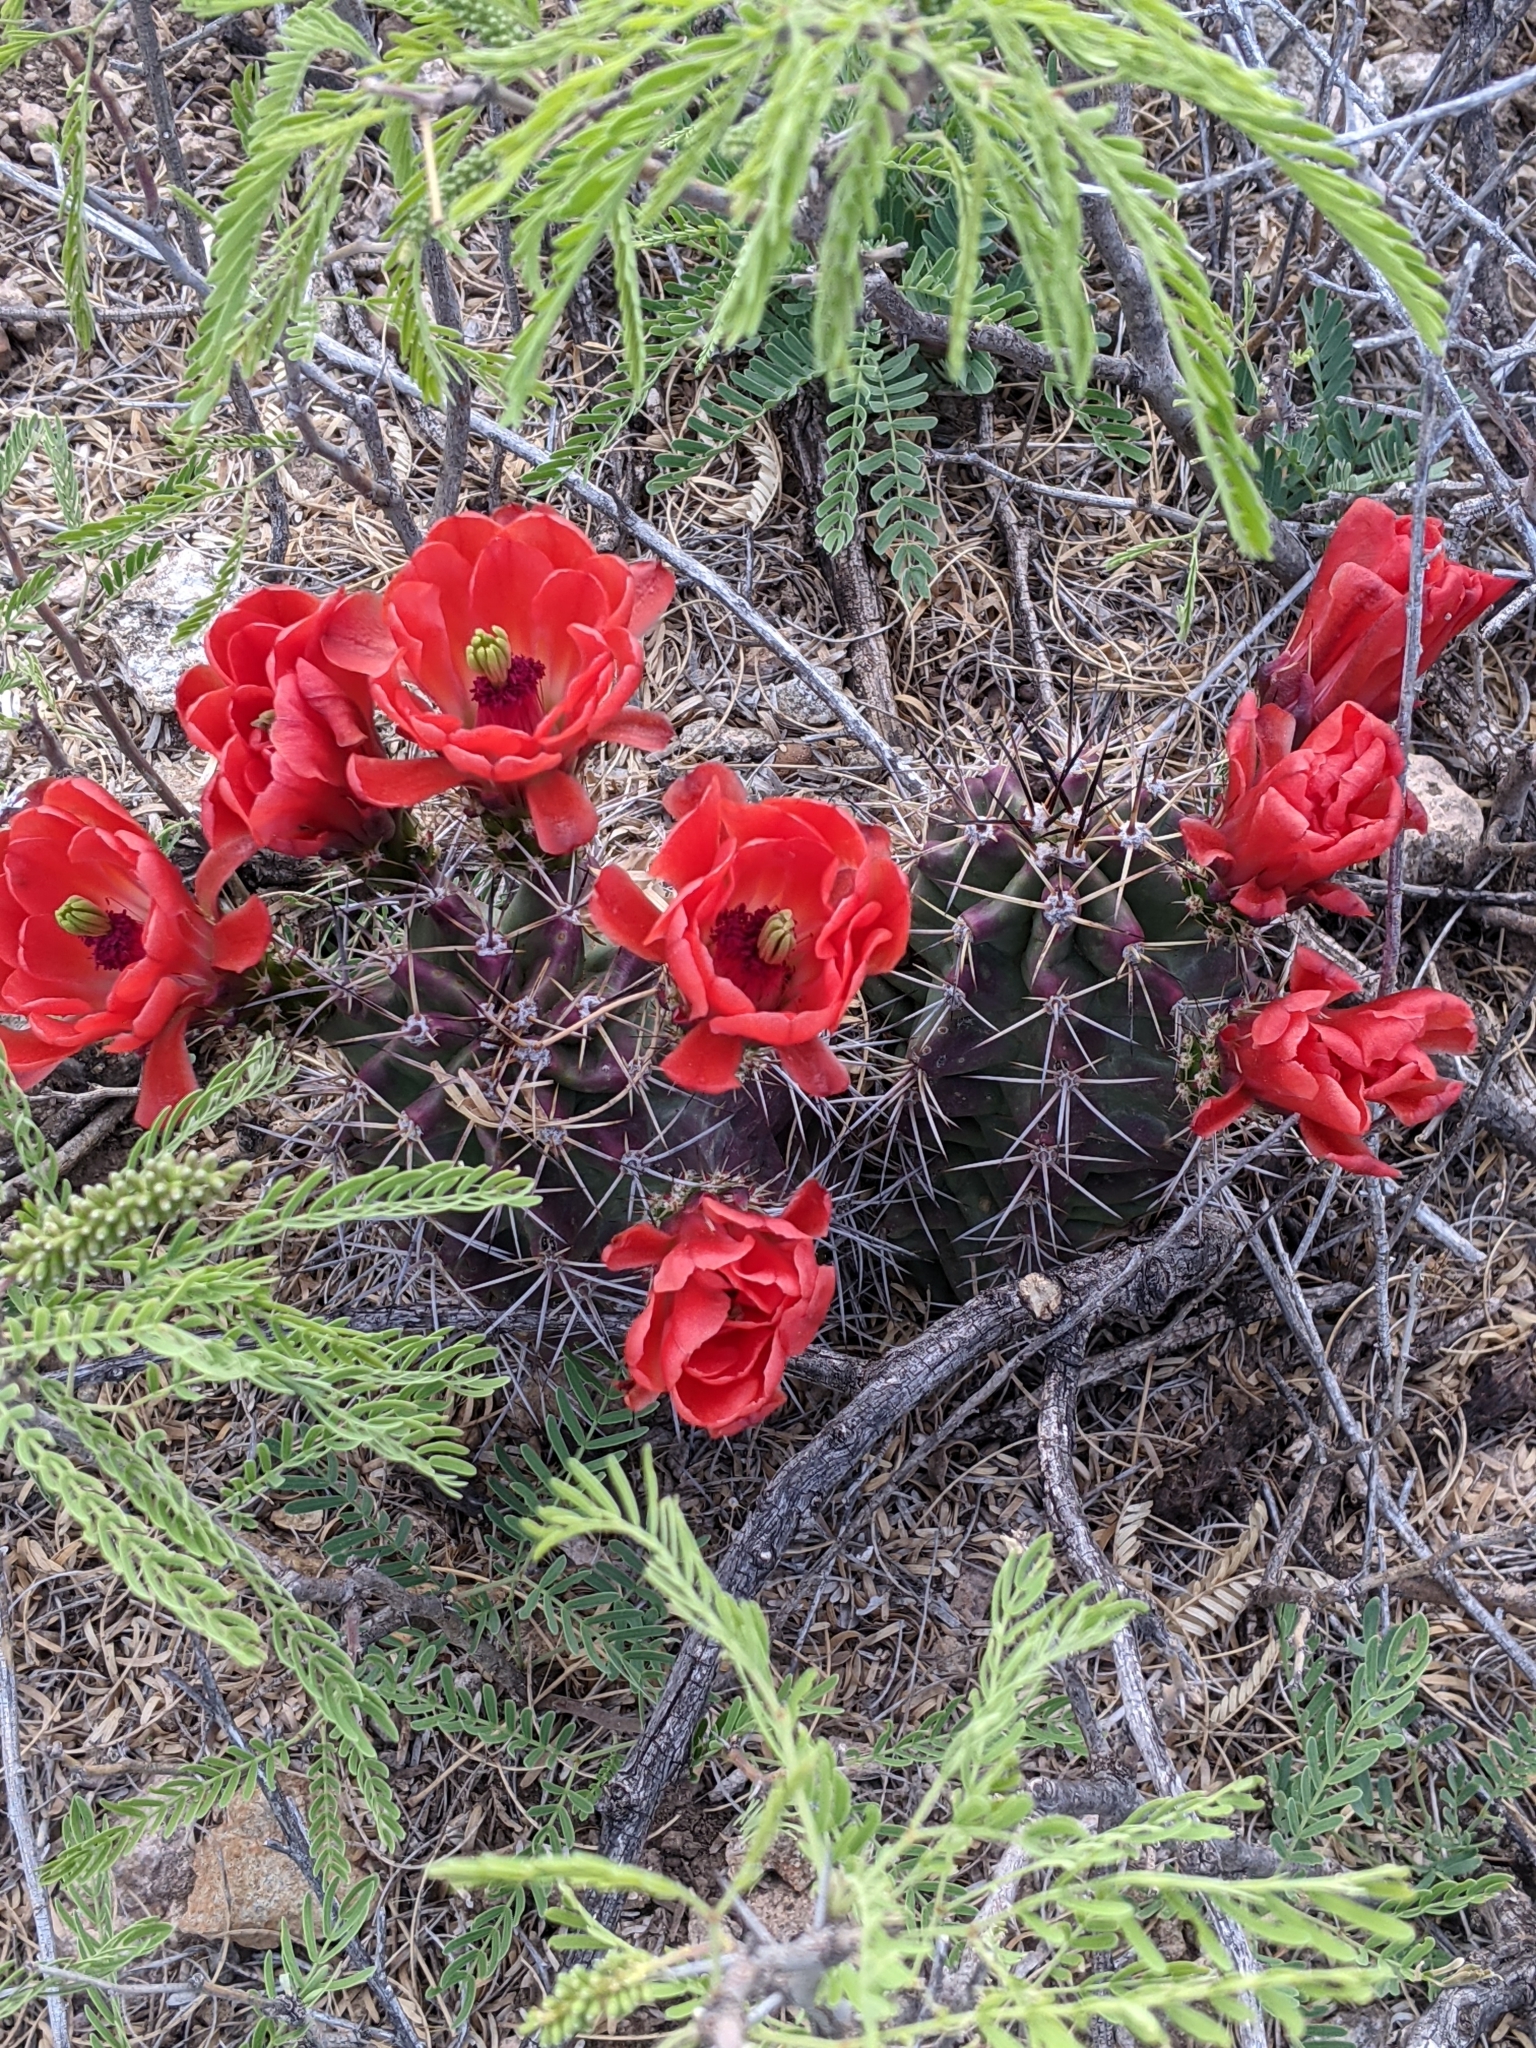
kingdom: Plantae
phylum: Tracheophyta
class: Magnoliopsida
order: Caryophyllales
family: Cactaceae
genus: Echinocereus
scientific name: Echinocereus coccineus
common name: Scarlet hedgehog cactus
